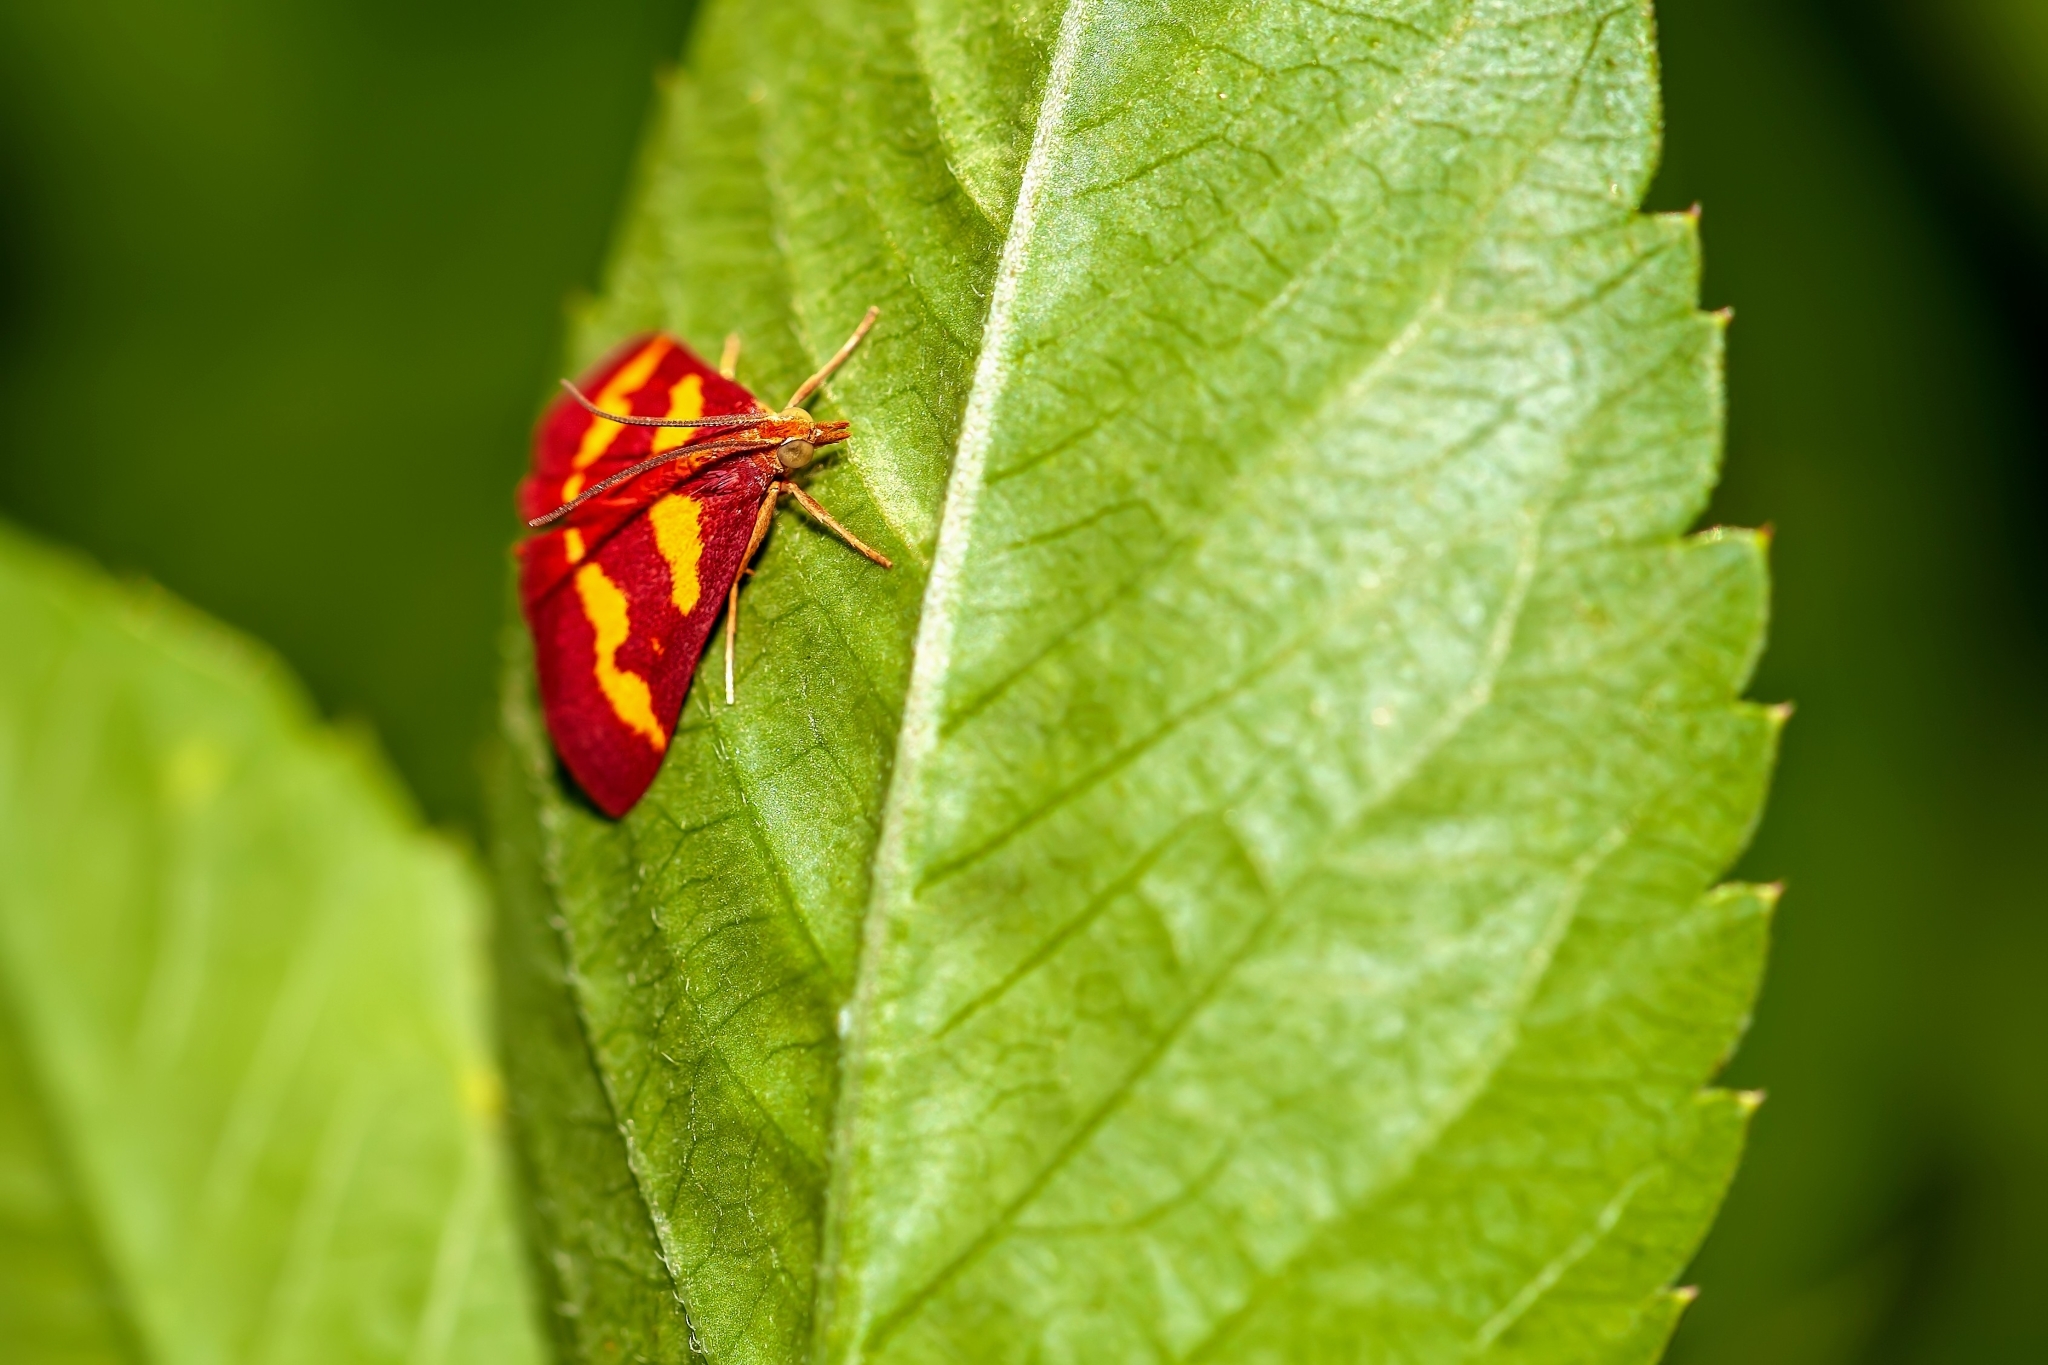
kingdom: Animalia
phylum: Arthropoda
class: Insecta
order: Lepidoptera
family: Crambidae
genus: Pyrausta
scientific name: Pyrausta tyralis
